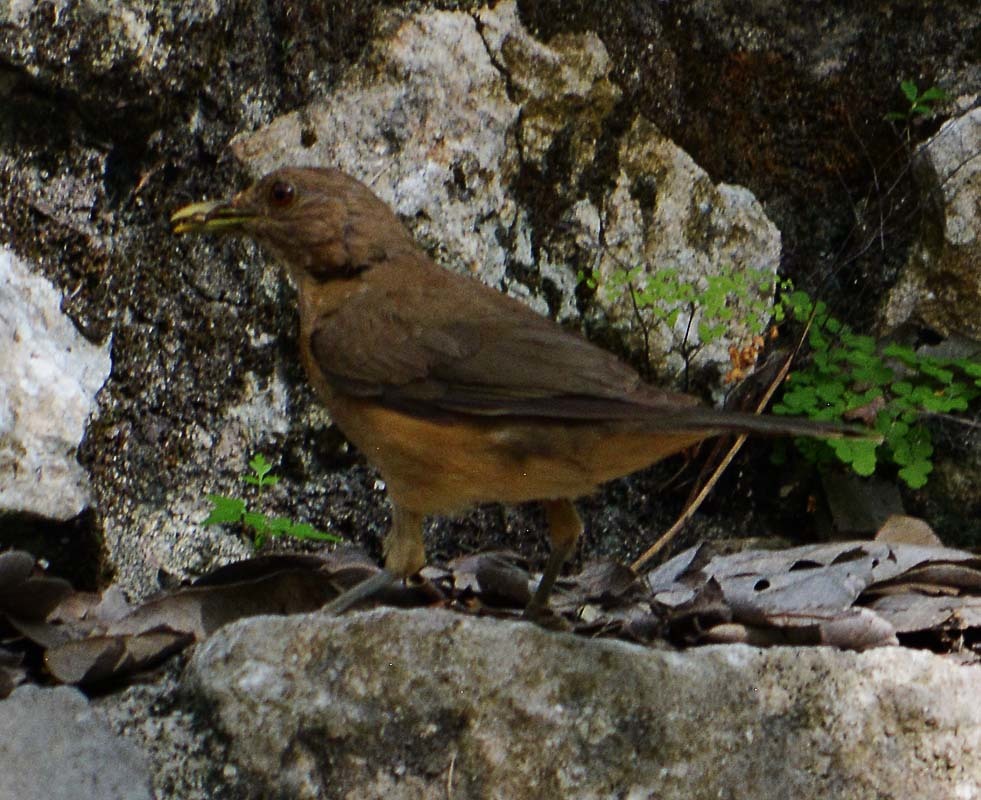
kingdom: Animalia
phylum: Chordata
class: Aves
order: Passeriformes
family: Turdidae
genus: Turdus
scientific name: Turdus grayi
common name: Clay-colored thrush
